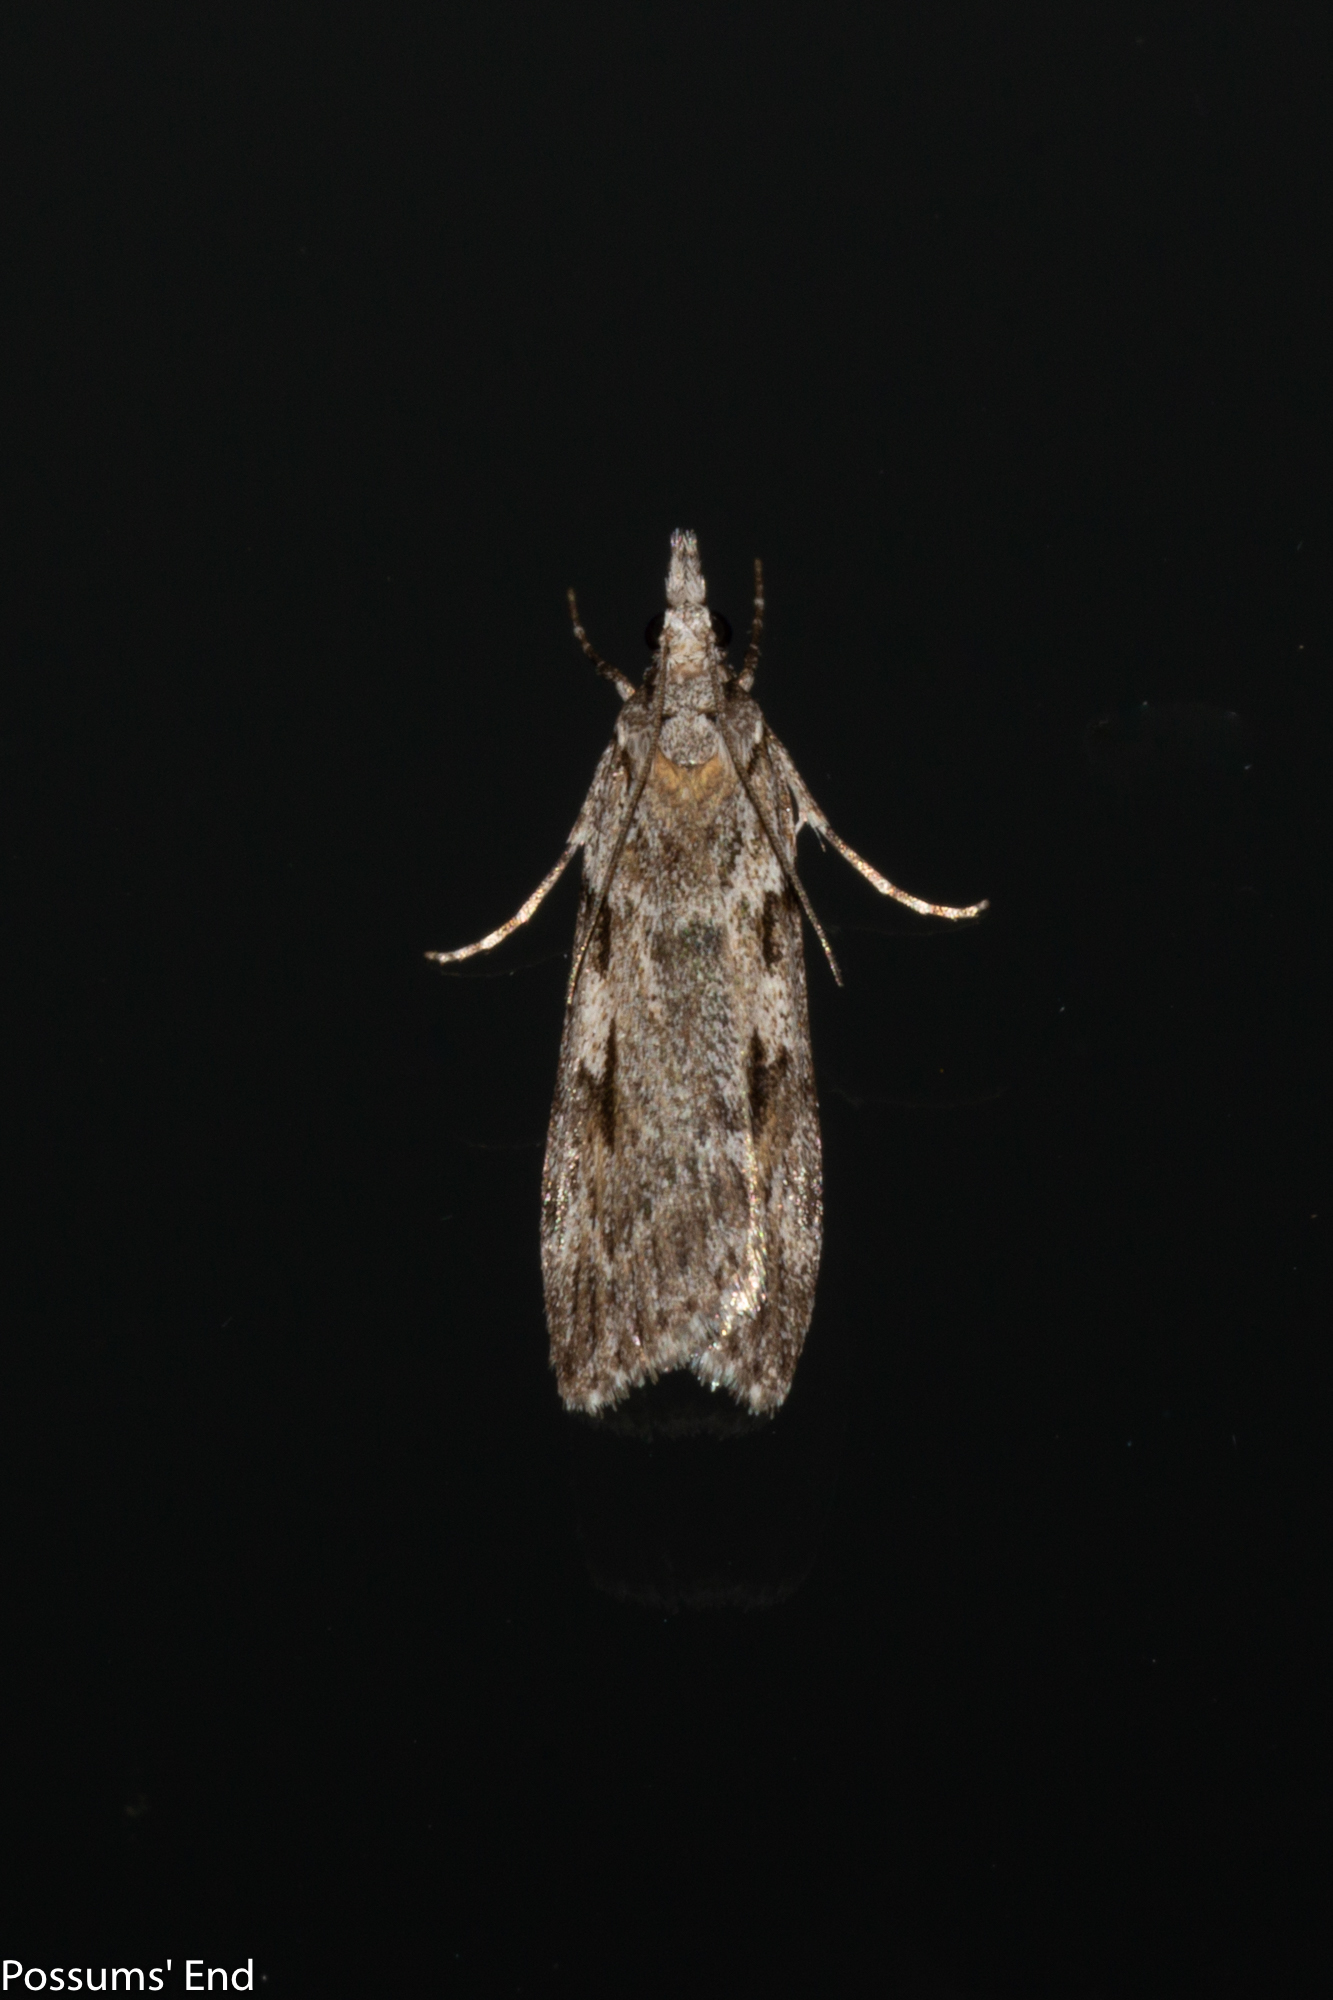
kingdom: Animalia
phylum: Arthropoda
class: Insecta
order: Lepidoptera
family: Crambidae
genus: Scoparia
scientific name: Scoparia halopis
